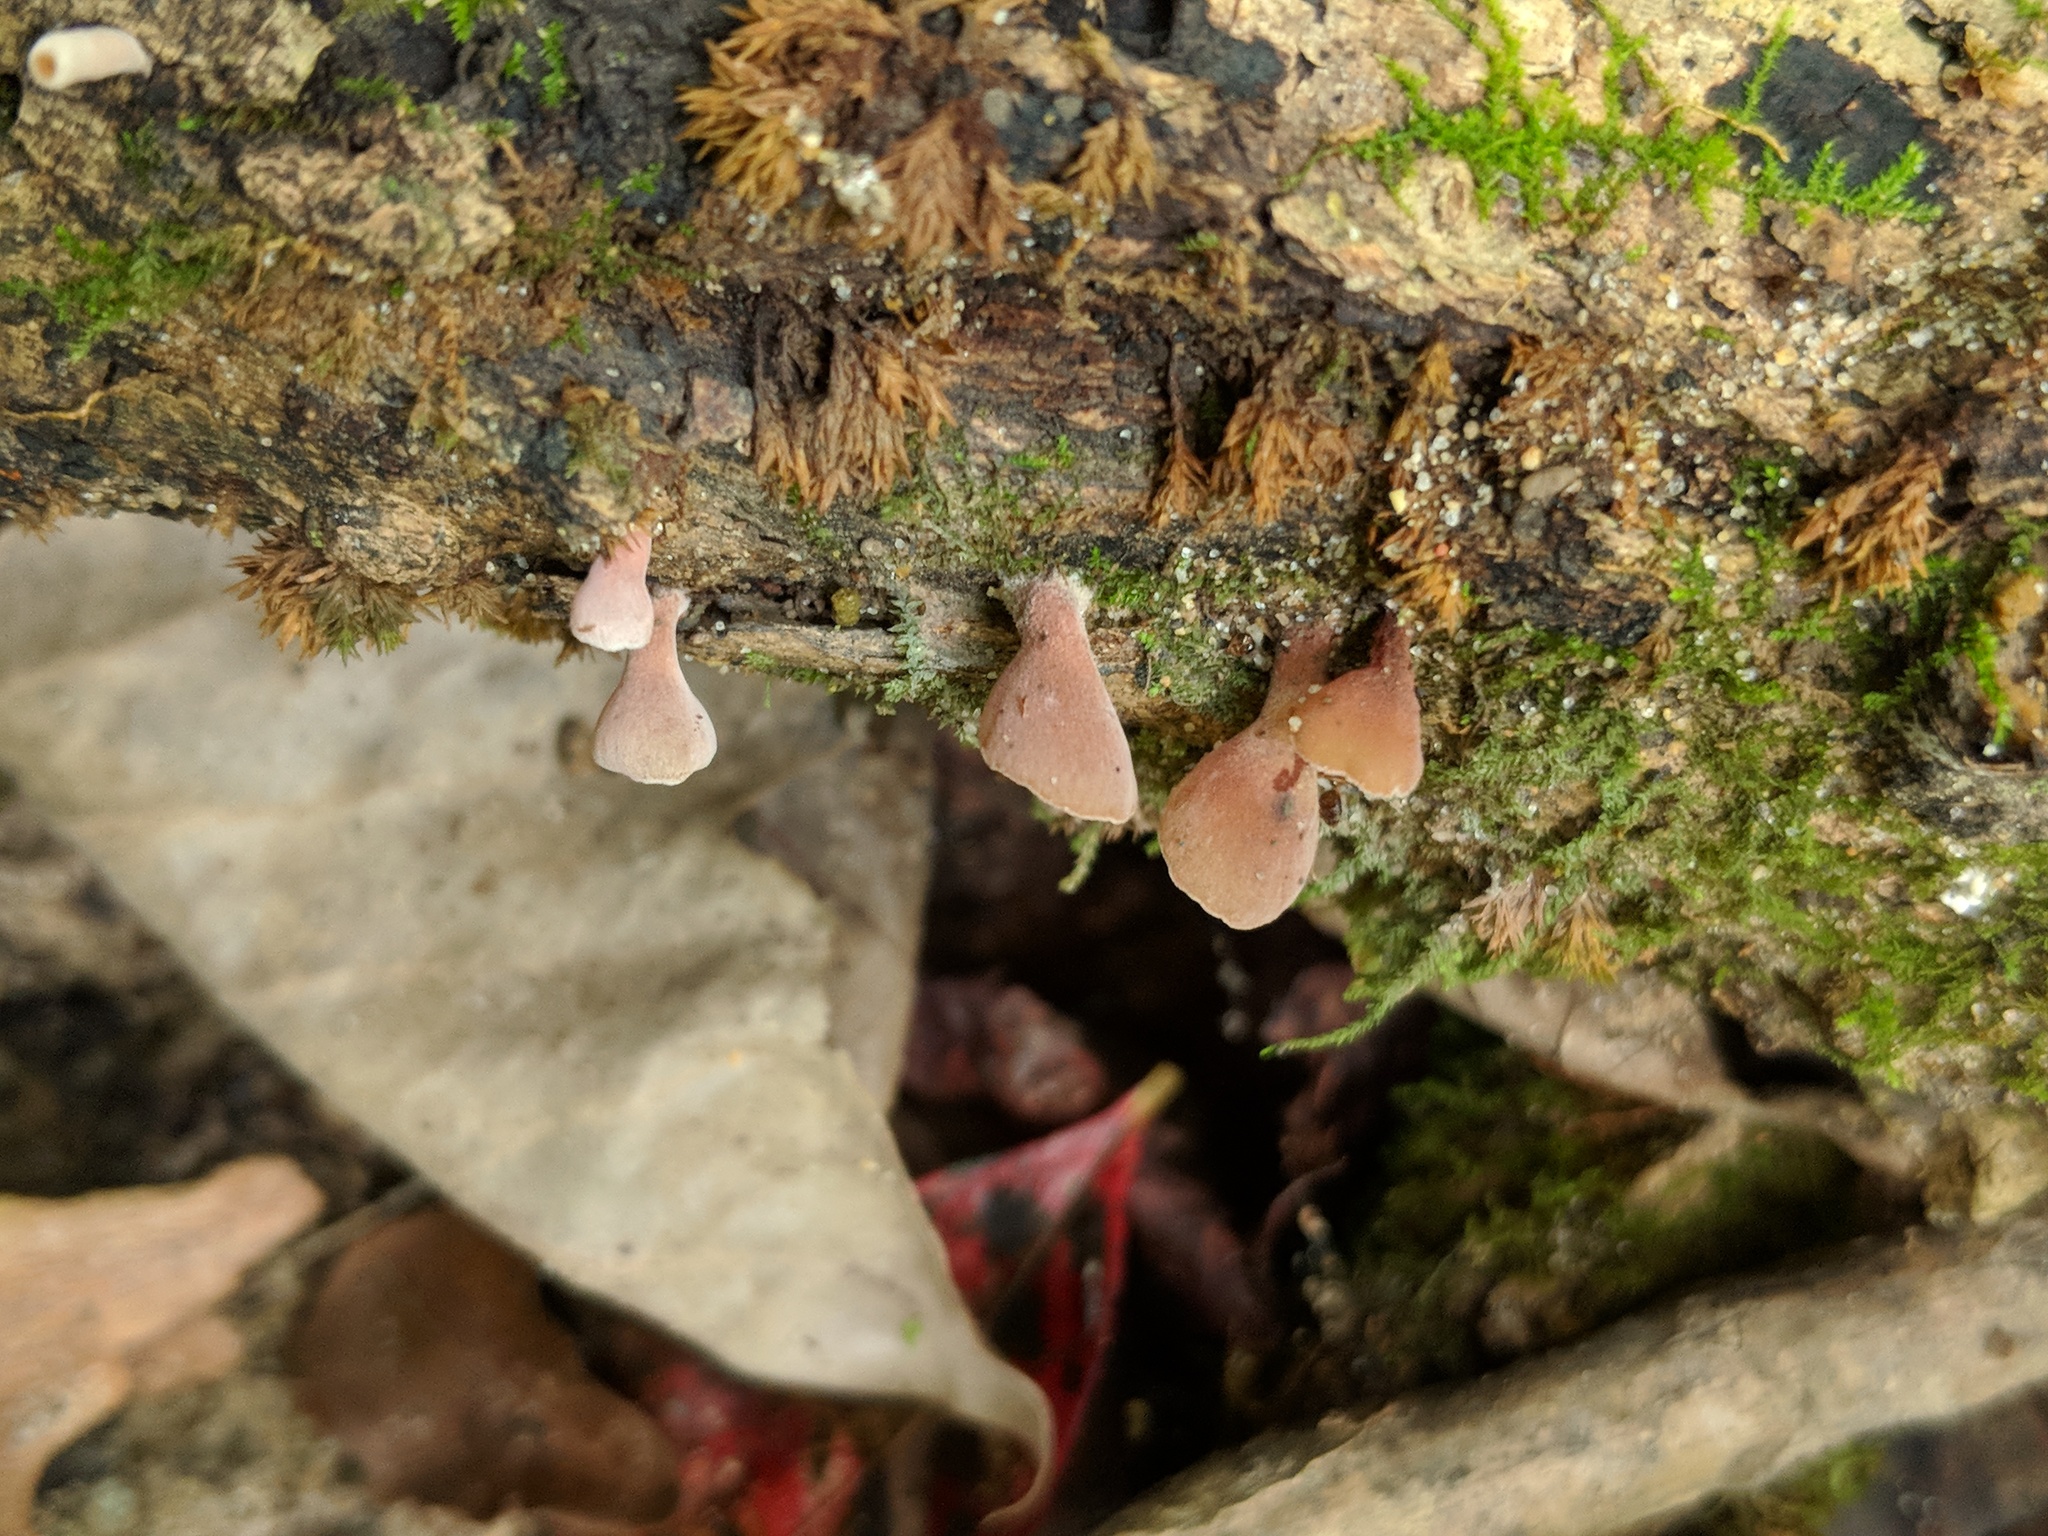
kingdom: Fungi
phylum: Basidiomycota
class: Dacrymycetes
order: Dacrymycetales
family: Dacrymycetaceae
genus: Dacryopinax
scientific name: Dacryopinax elegans
